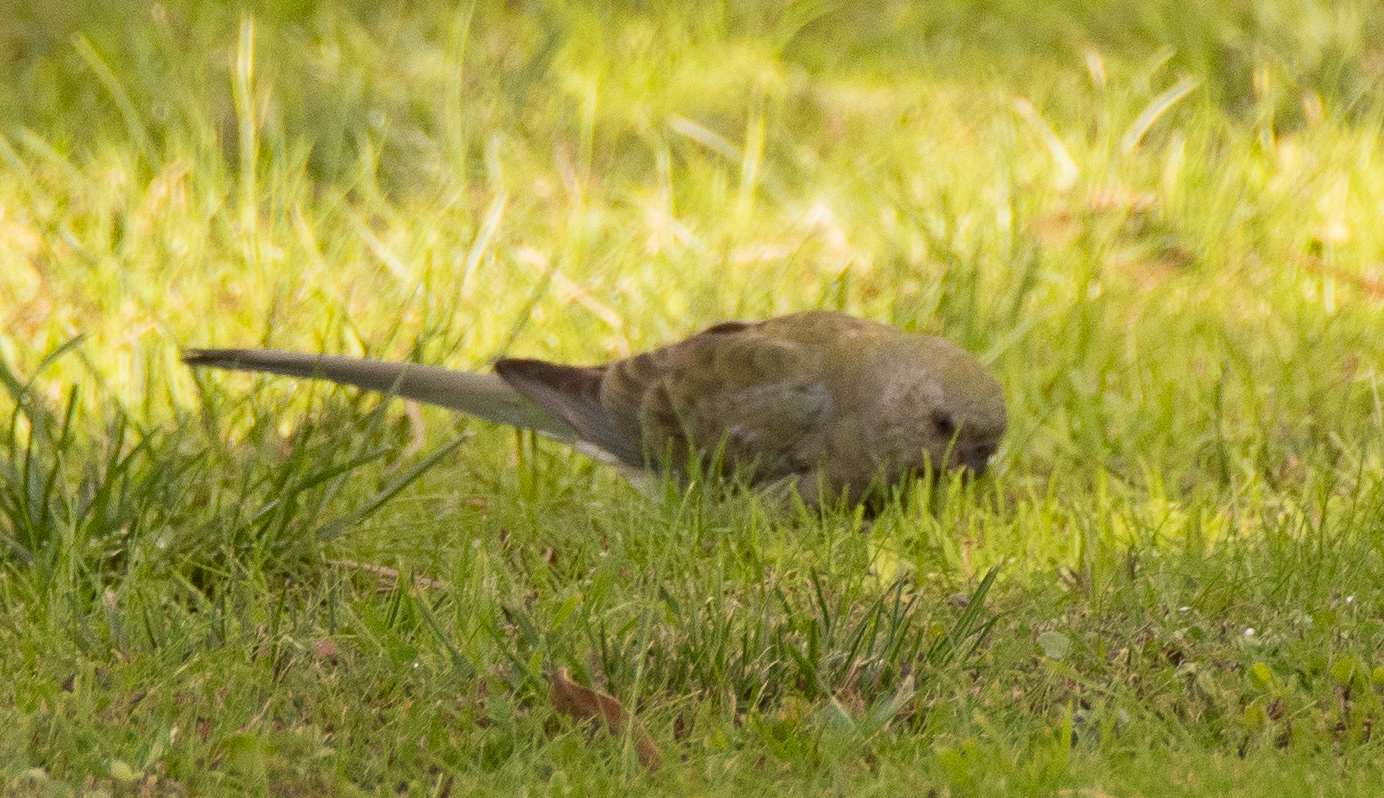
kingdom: Animalia
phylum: Chordata
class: Aves
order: Psittaciformes
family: Psittacidae
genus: Psephotus
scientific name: Psephotus haematonotus
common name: Red-rumped parrot
